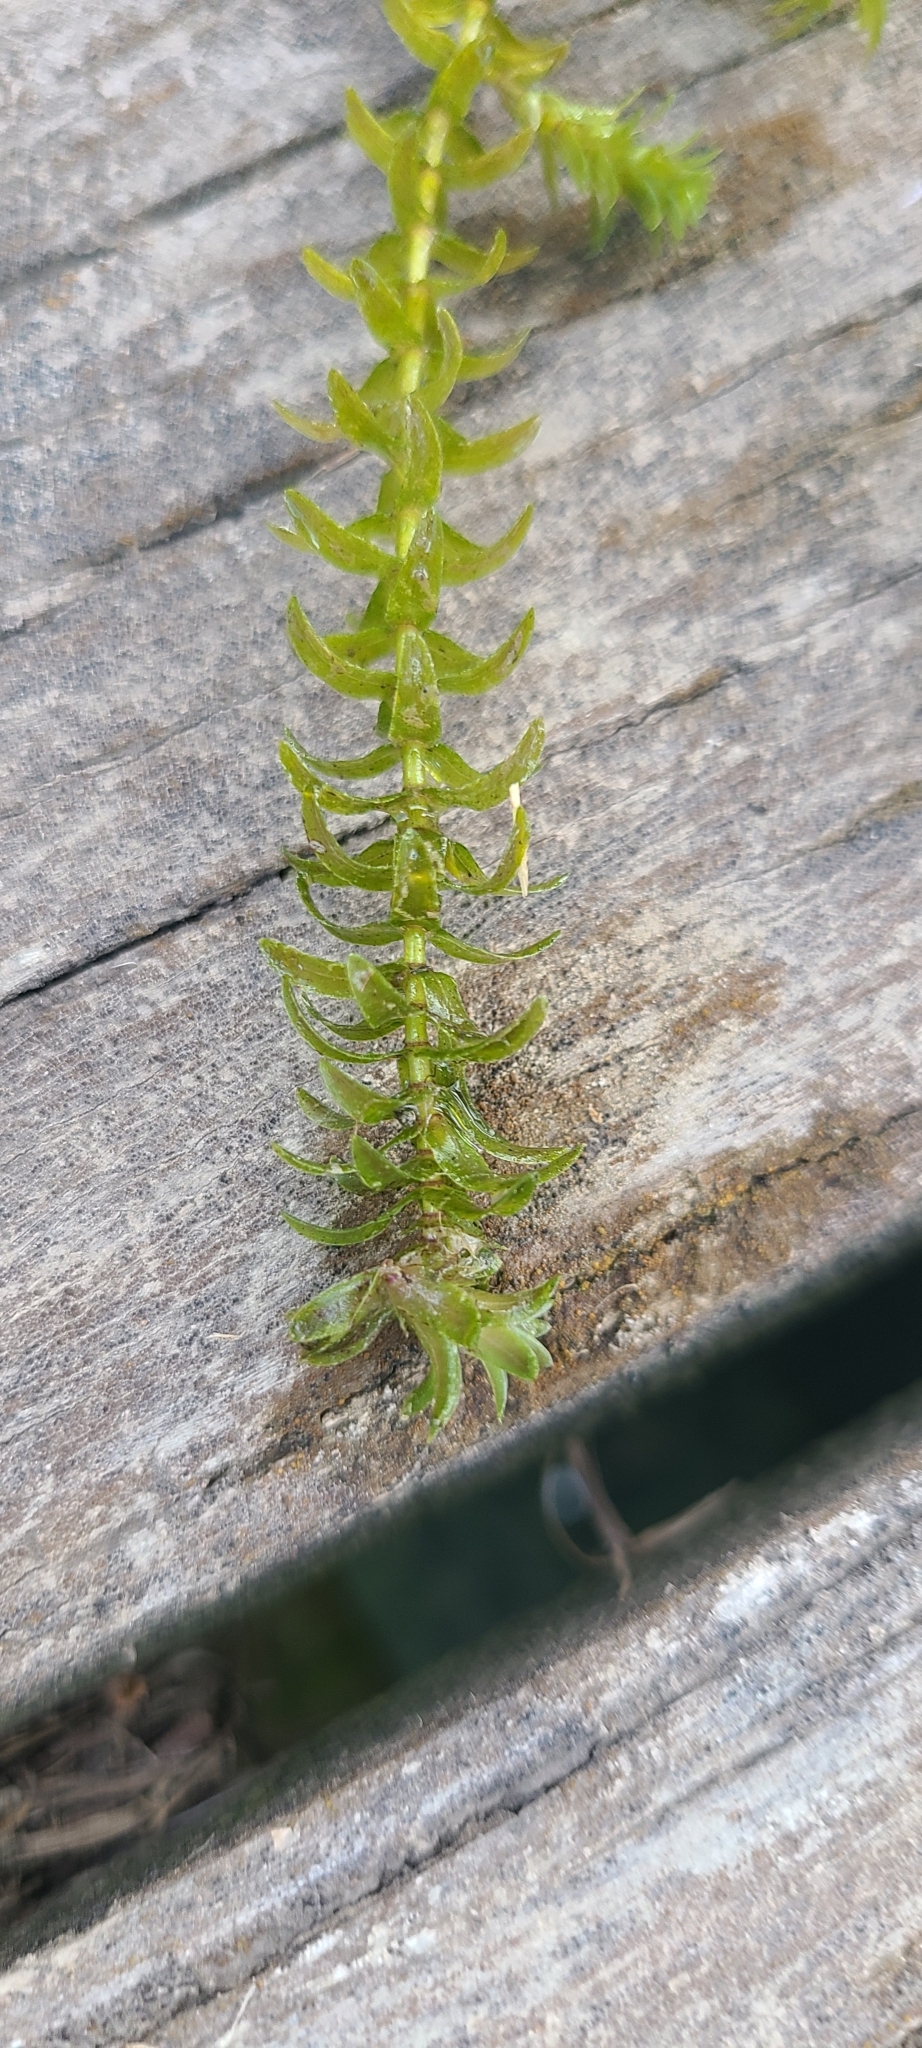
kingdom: Plantae
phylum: Tracheophyta
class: Liliopsida
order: Alismatales
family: Hydrocharitaceae
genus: Elodea
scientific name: Elodea canadensis
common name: Canadian waterweed
